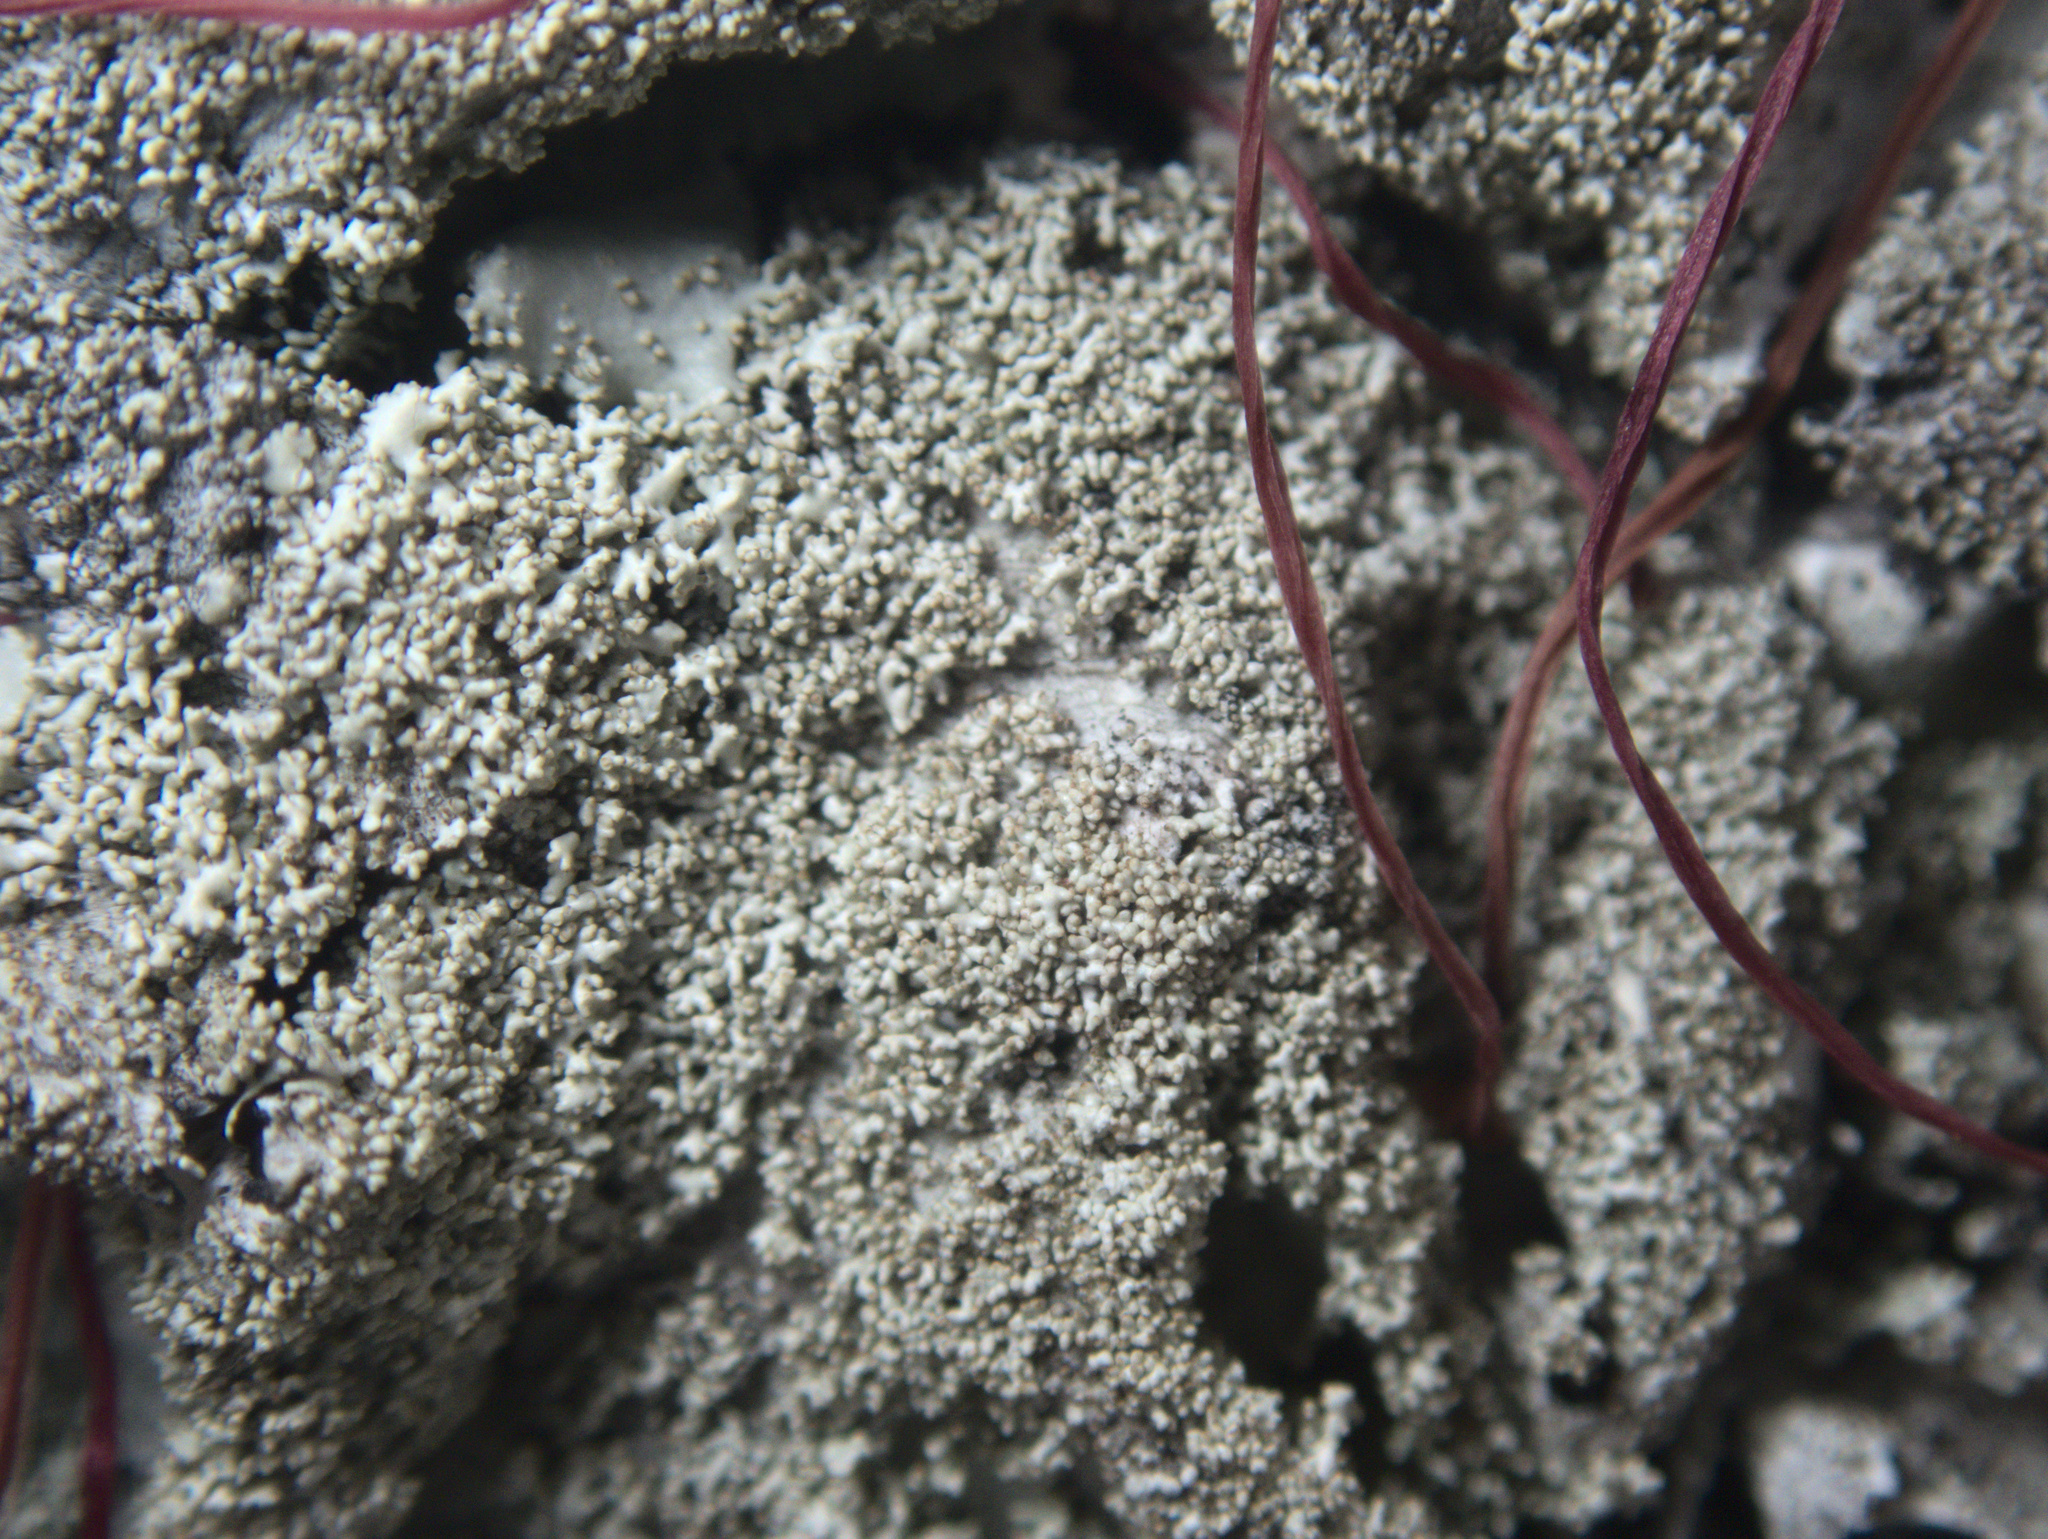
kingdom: Fungi
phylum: Ascomycota
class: Lecanoromycetes
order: Lecanorales
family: Parmeliaceae
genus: Parmotrema
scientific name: Parmotrema tinctorum
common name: Old gray ruffles
